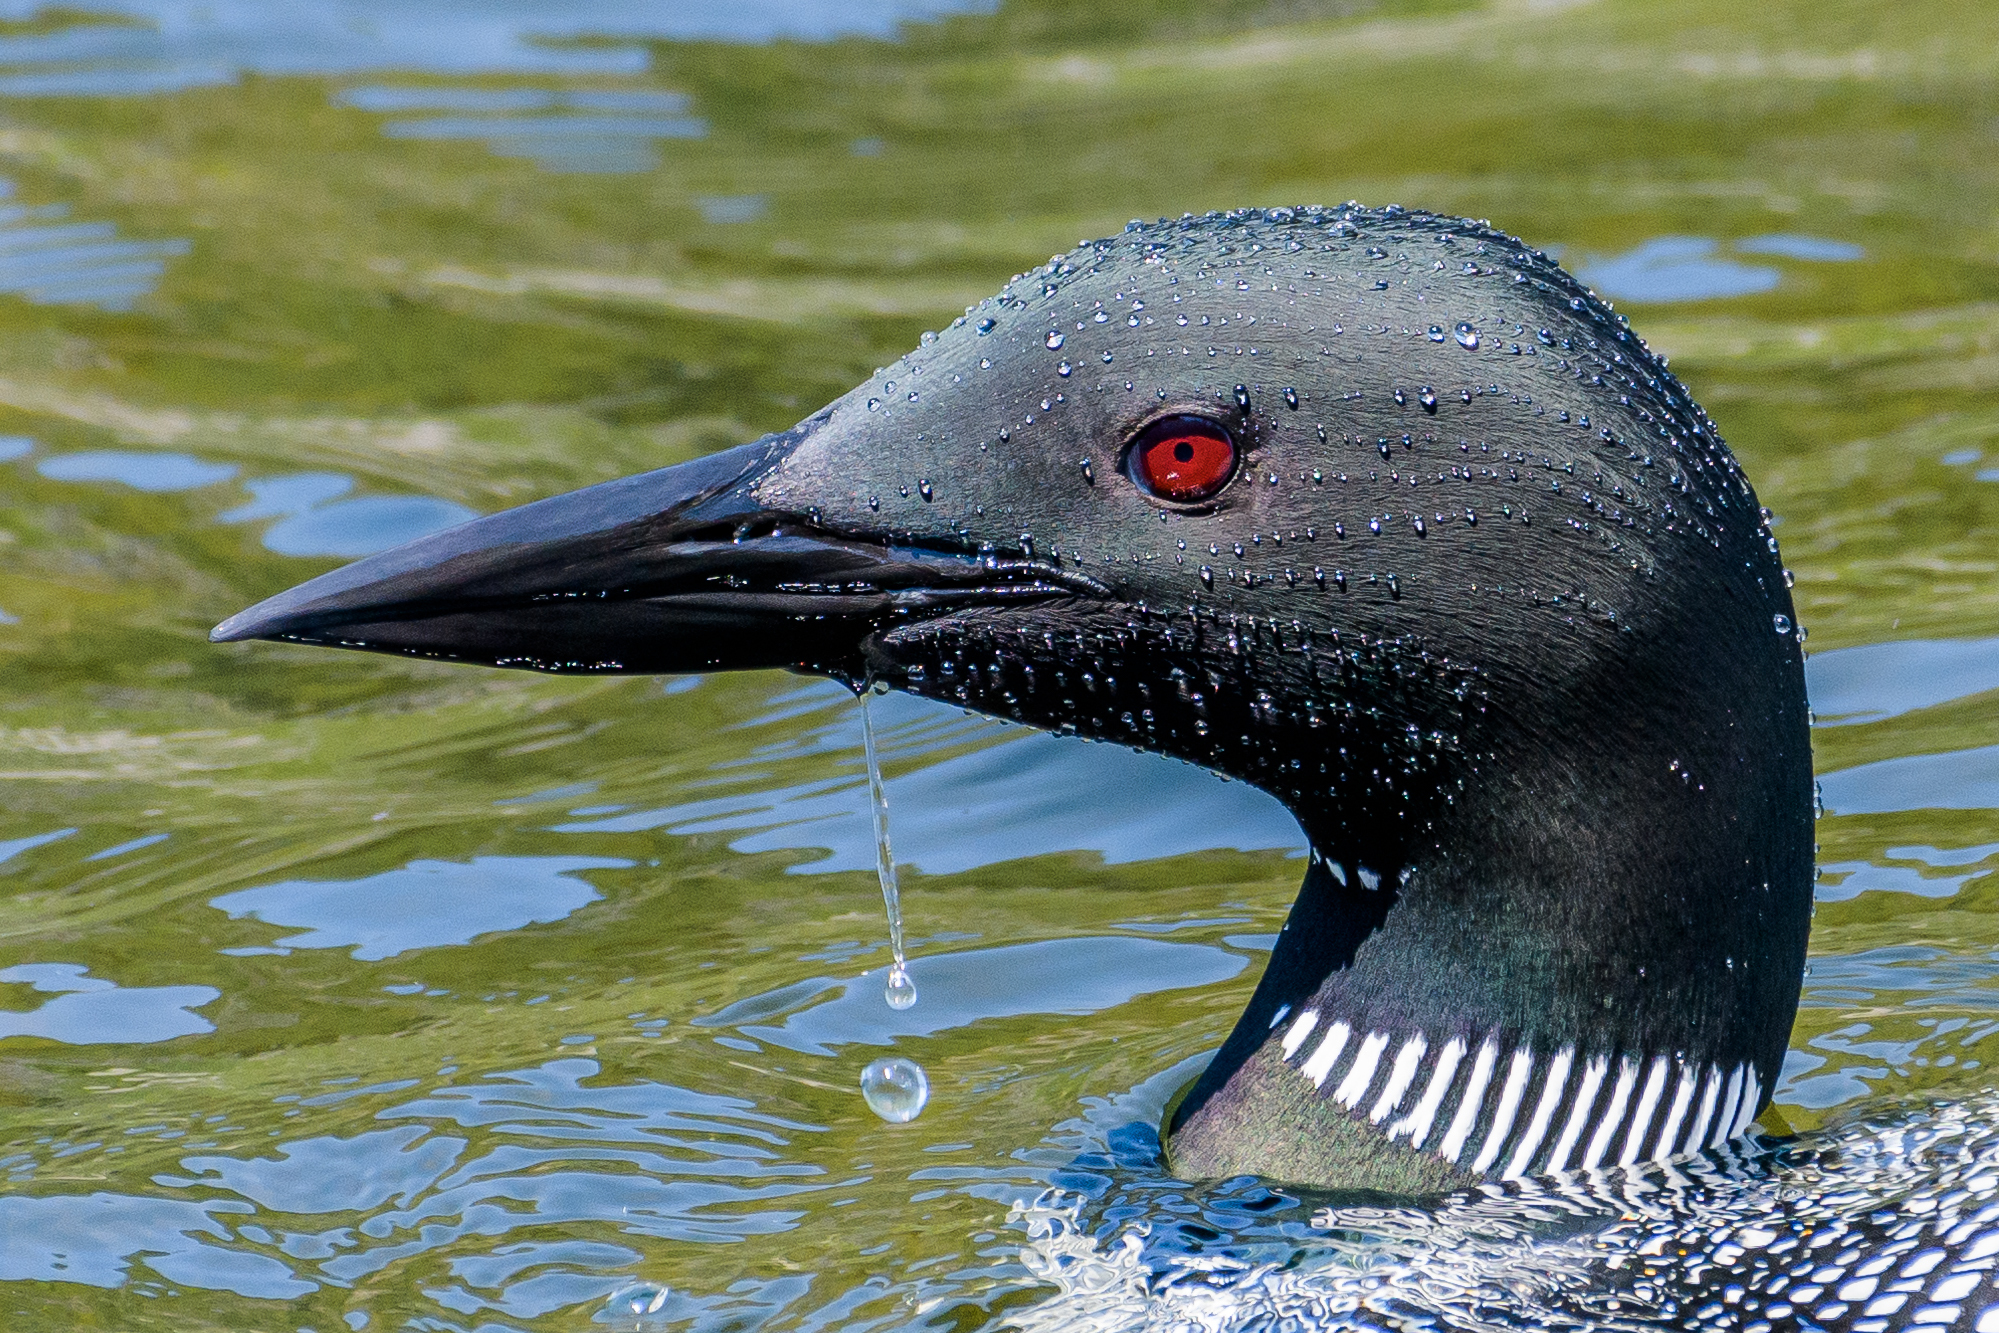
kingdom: Animalia
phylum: Chordata
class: Aves
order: Gaviiformes
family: Gaviidae
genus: Gavia
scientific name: Gavia immer
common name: Common loon
